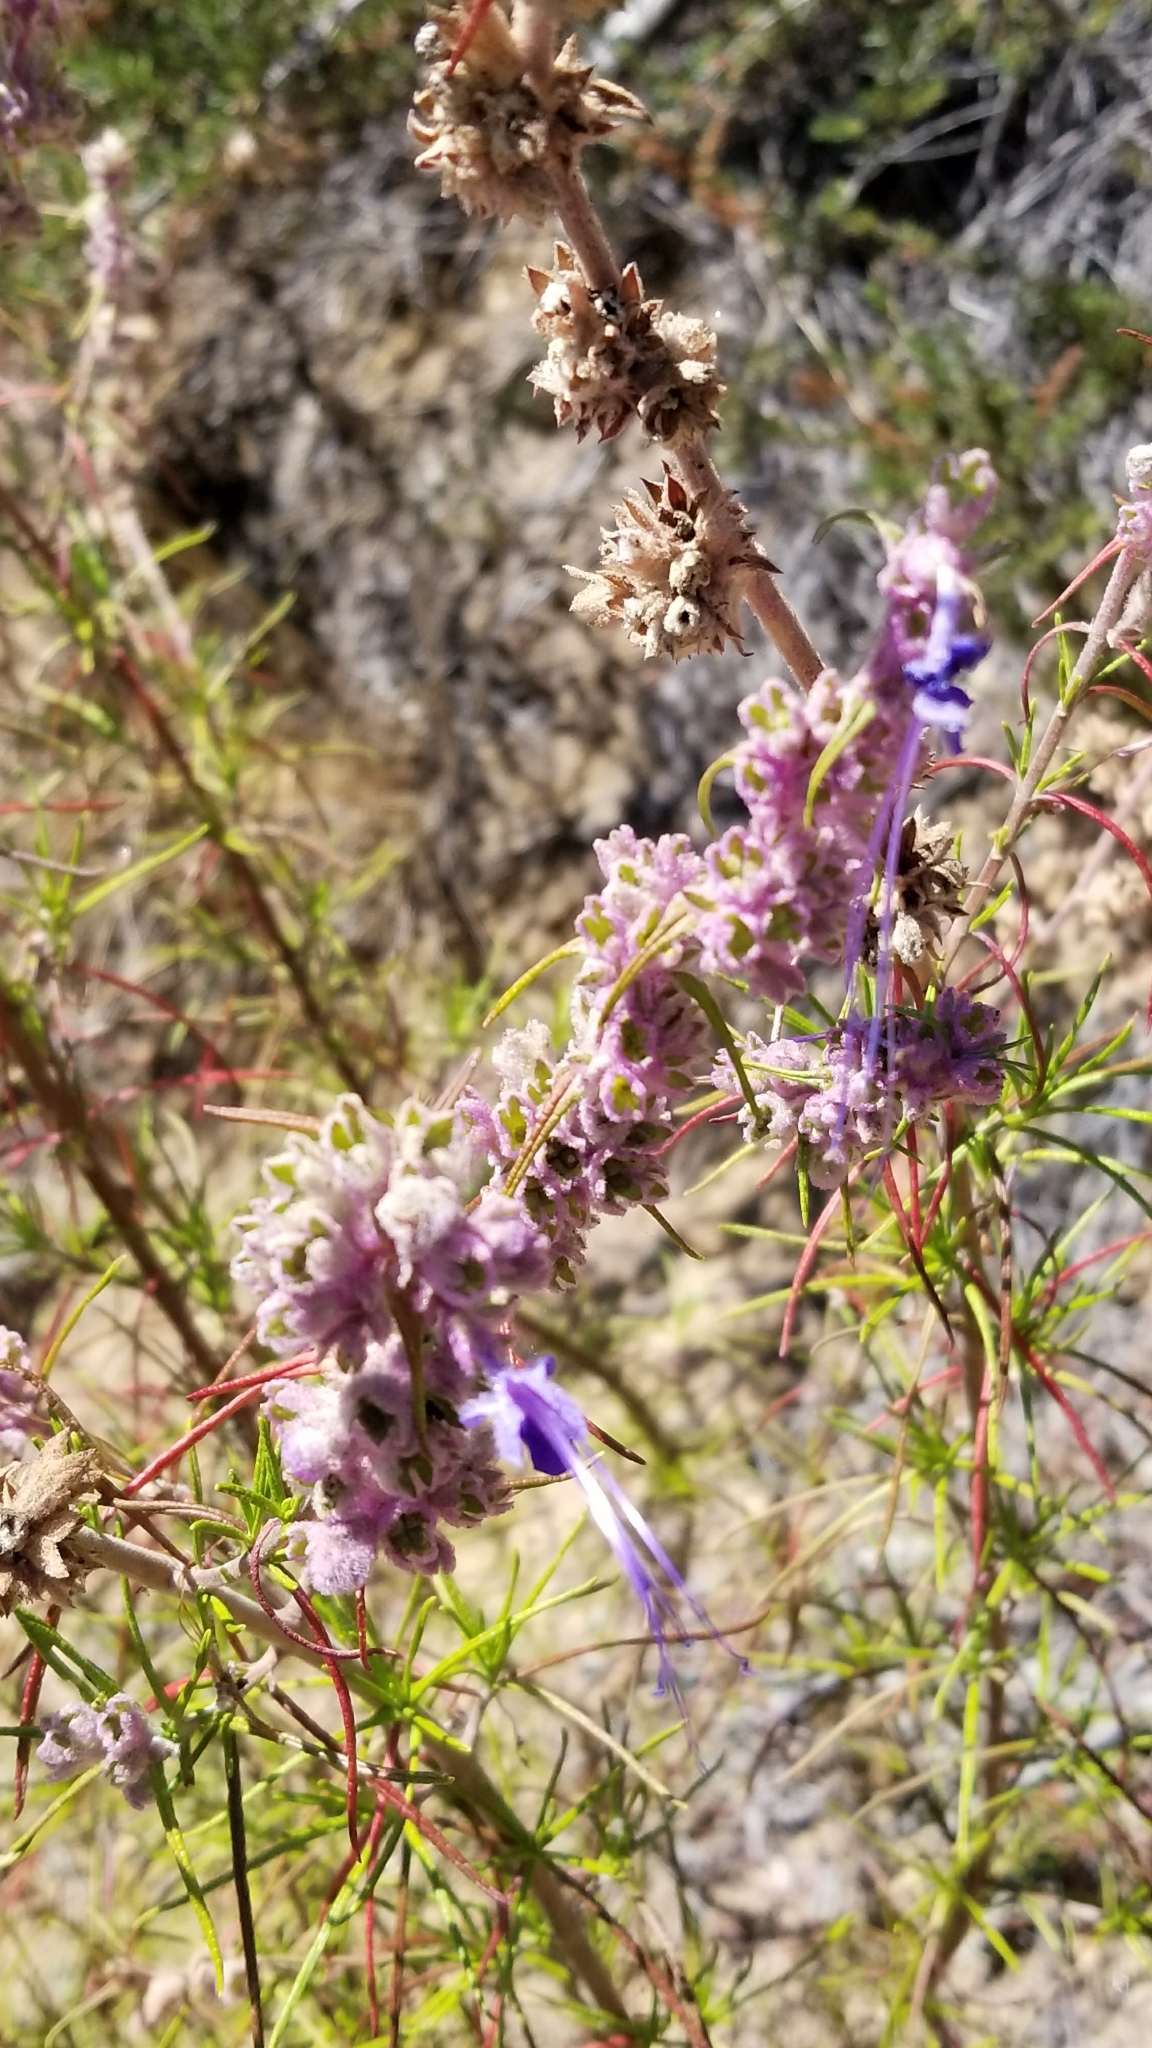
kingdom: Plantae
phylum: Tracheophyta
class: Magnoliopsida
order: Lamiales
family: Lamiaceae
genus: Trichostema
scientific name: Trichostema lanatum
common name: Woolly bluecurls
